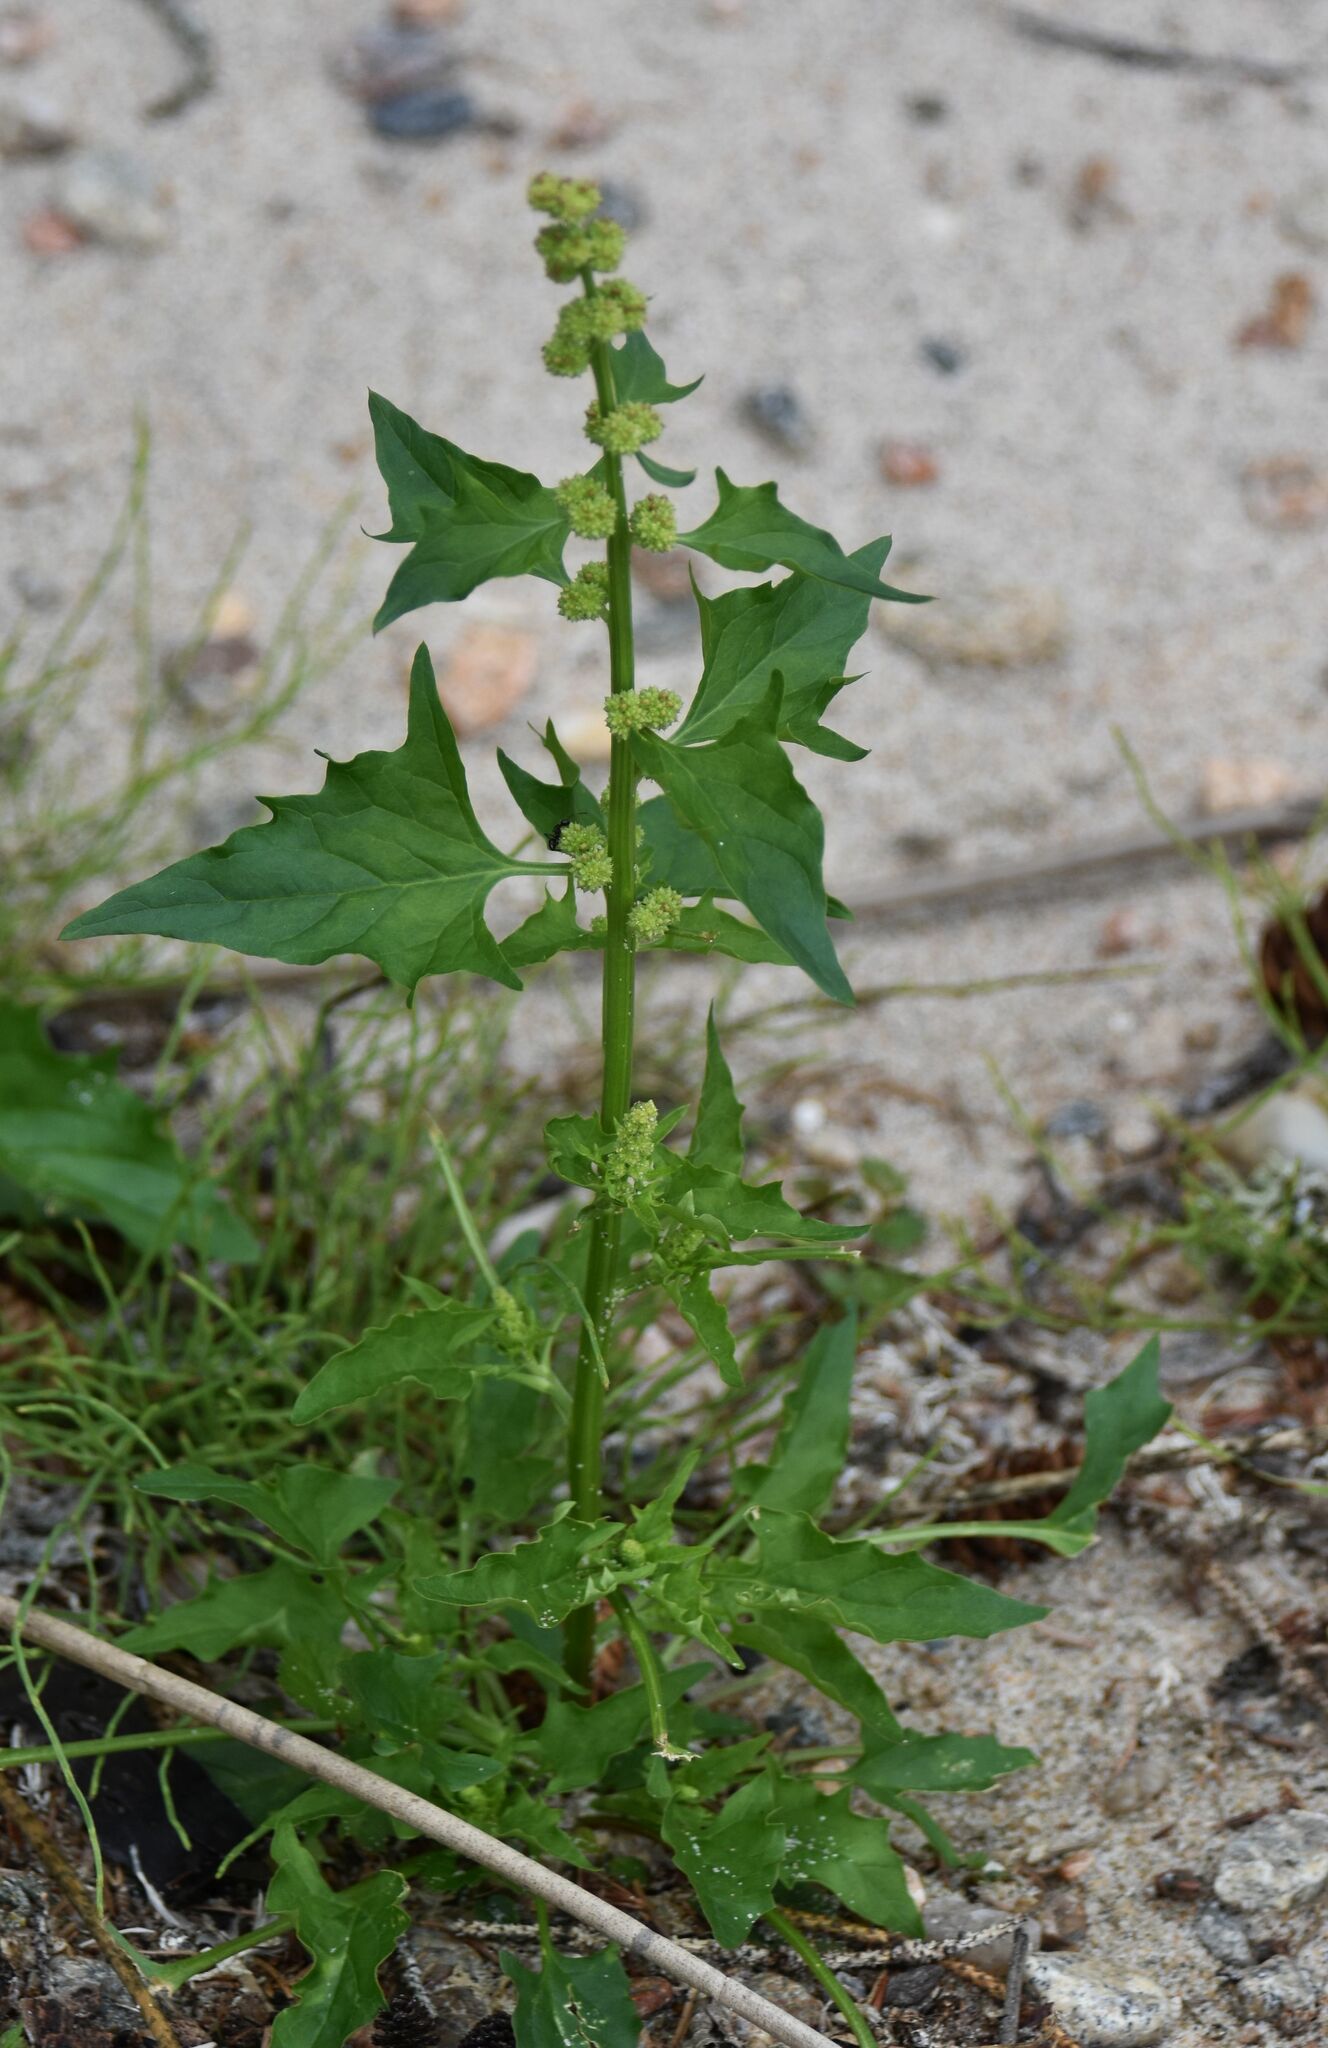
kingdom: Plantae
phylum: Tracheophyta
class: Magnoliopsida
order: Caryophyllales
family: Amaranthaceae
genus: Blitum
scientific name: Blitum capitatum
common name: Strawberry-blight
